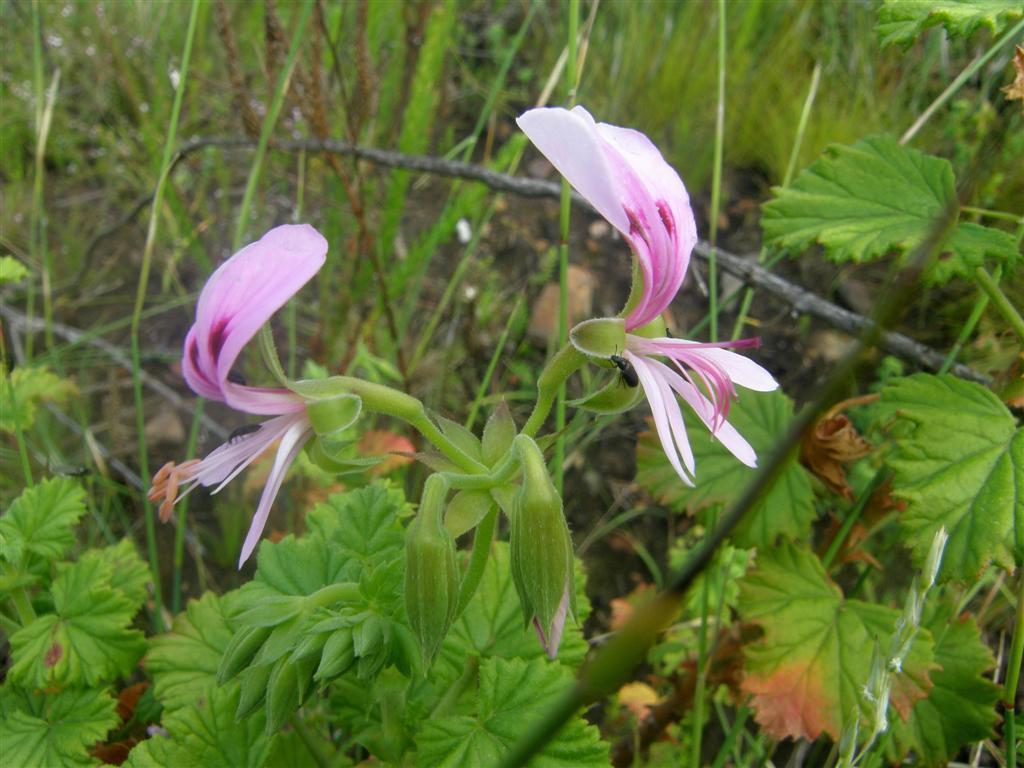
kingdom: Plantae
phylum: Tracheophyta
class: Magnoliopsida
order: Geraniales
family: Geraniaceae
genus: Pelargonium
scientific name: Pelargonium greytonense
